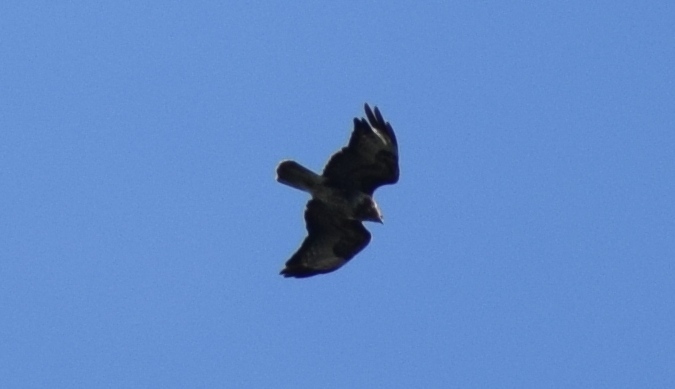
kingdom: Animalia
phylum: Chordata
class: Aves
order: Accipitriformes
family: Accipitridae
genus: Buteo
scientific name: Buteo buteo
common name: Common buzzard
